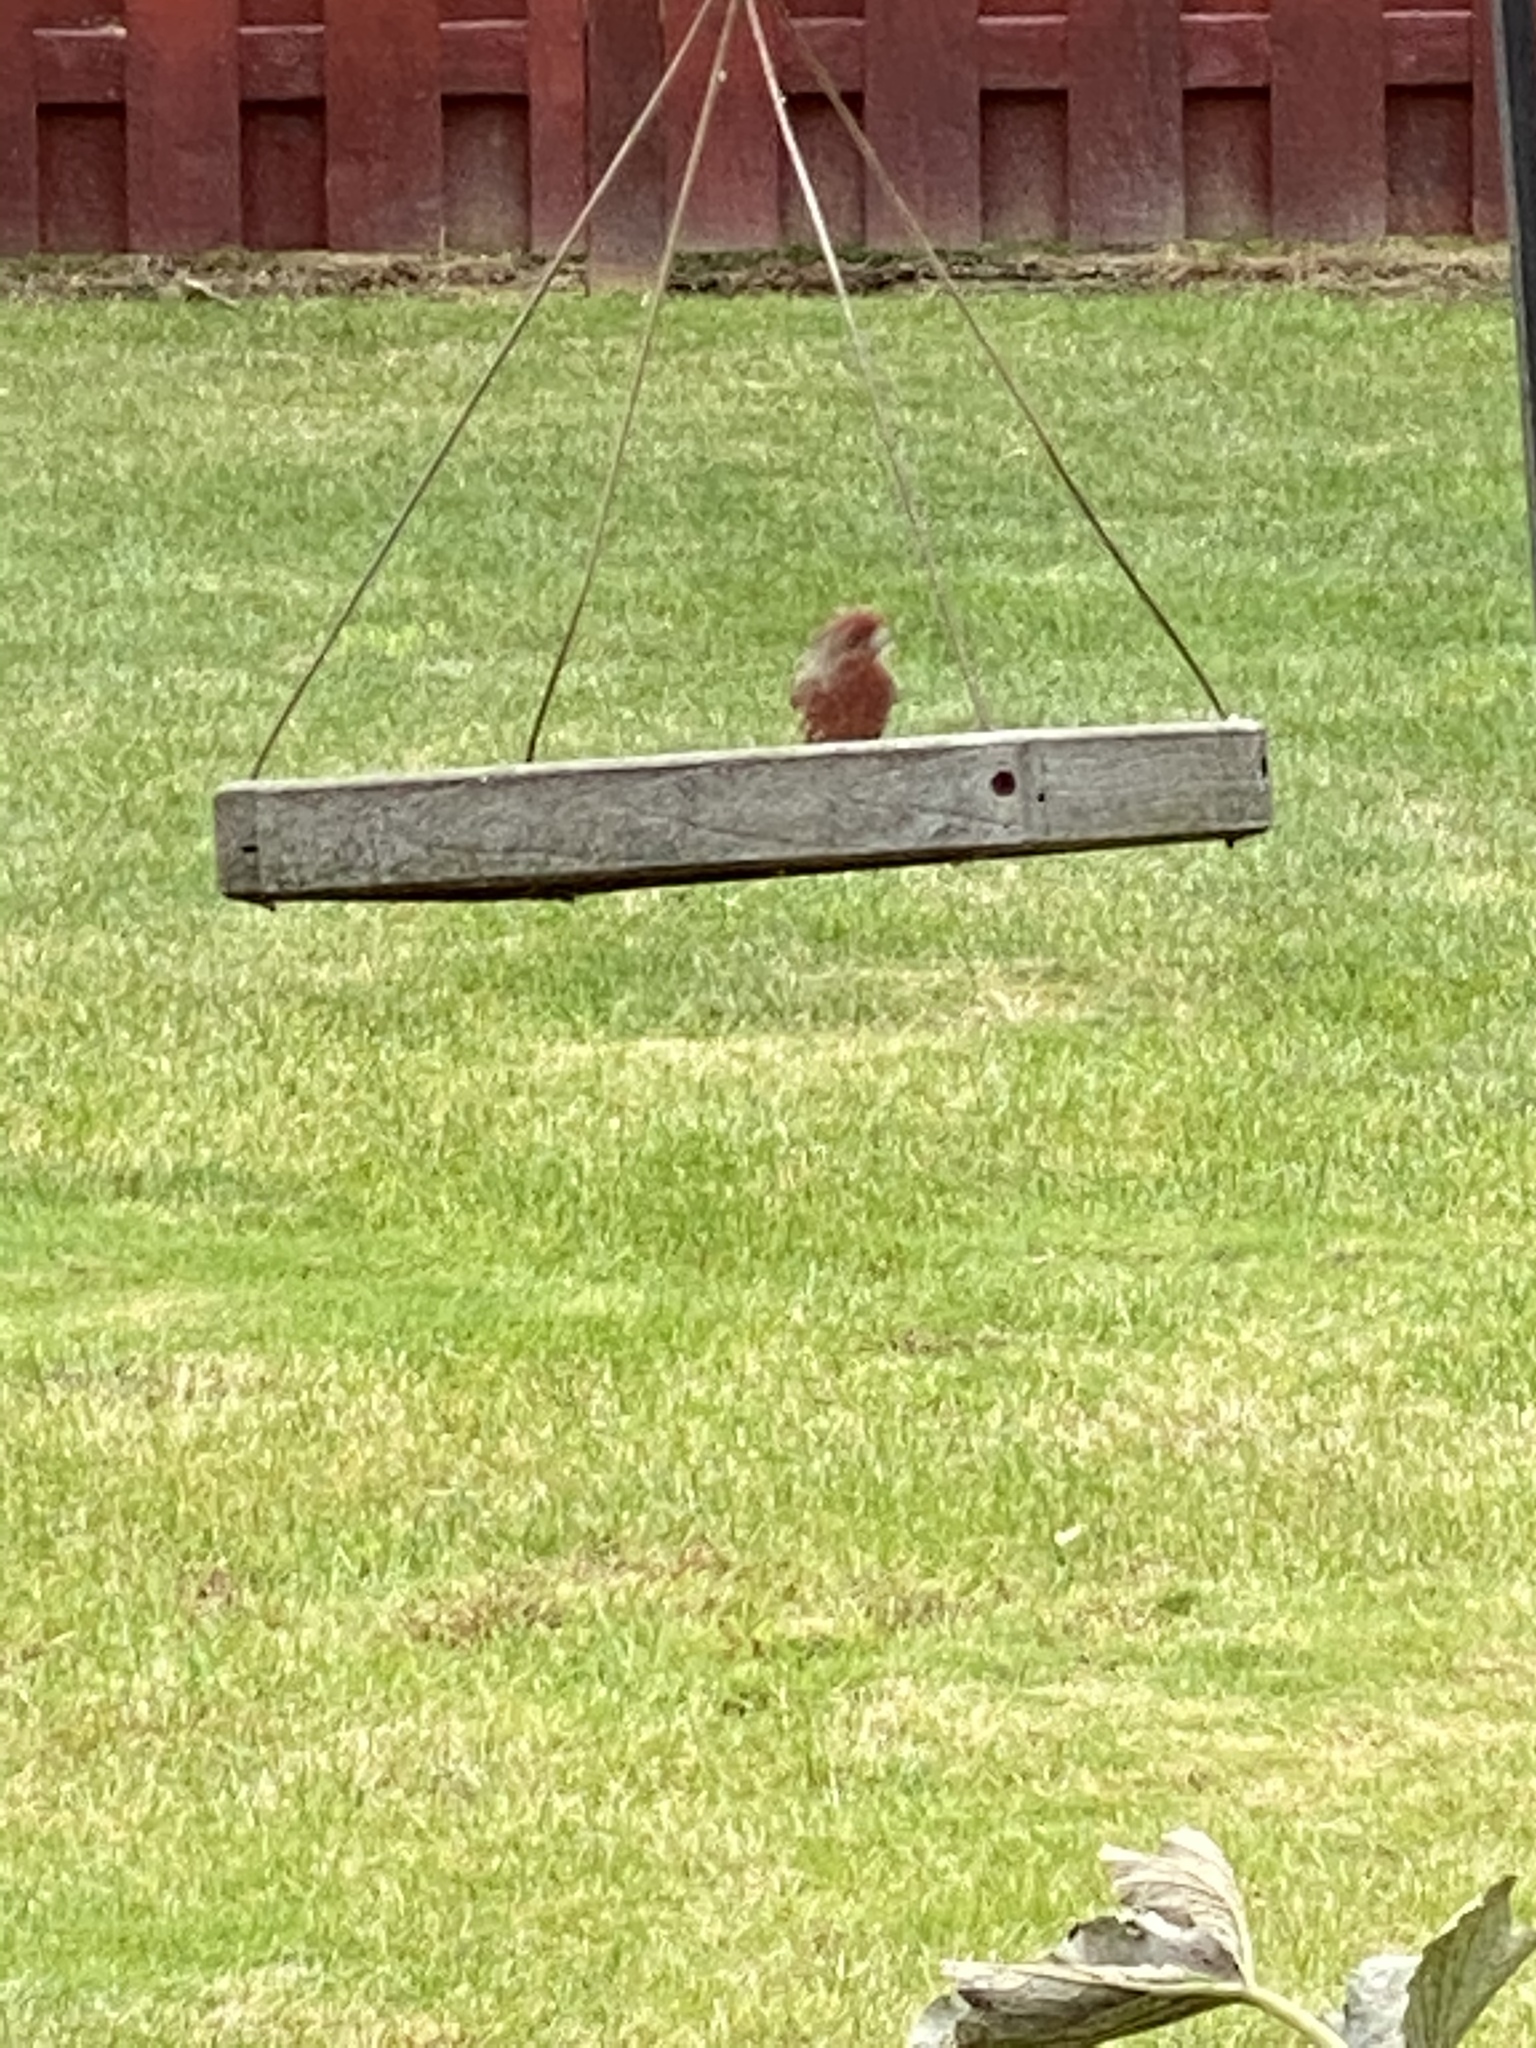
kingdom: Animalia
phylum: Chordata
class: Aves
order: Passeriformes
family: Fringillidae
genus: Haemorhous
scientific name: Haemorhous mexicanus
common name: House finch
